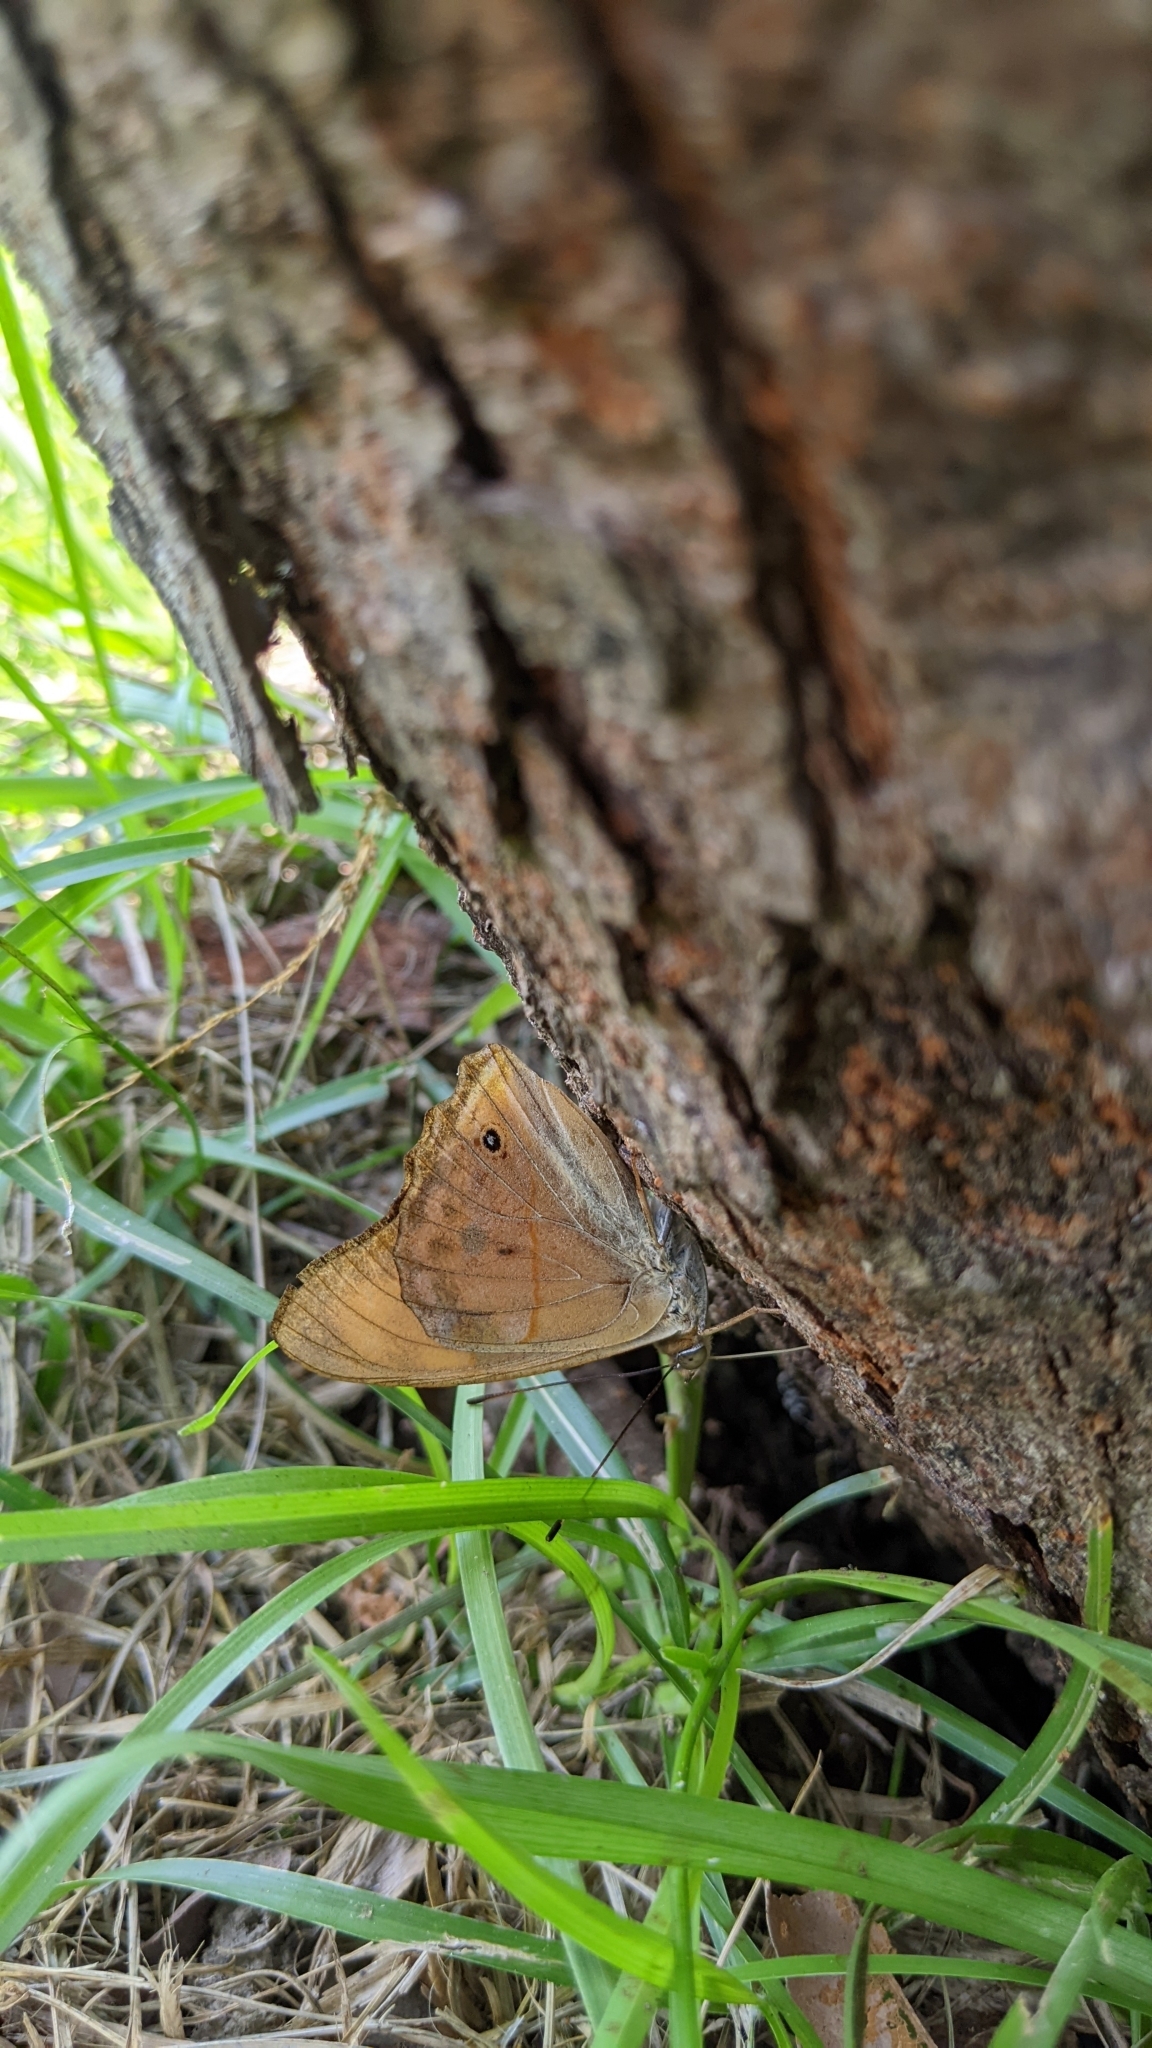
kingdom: Animalia
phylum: Arthropoda
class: Insecta
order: Lepidoptera
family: Nymphalidae
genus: Apatura
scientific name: Apatura Chitoria chrysolora
